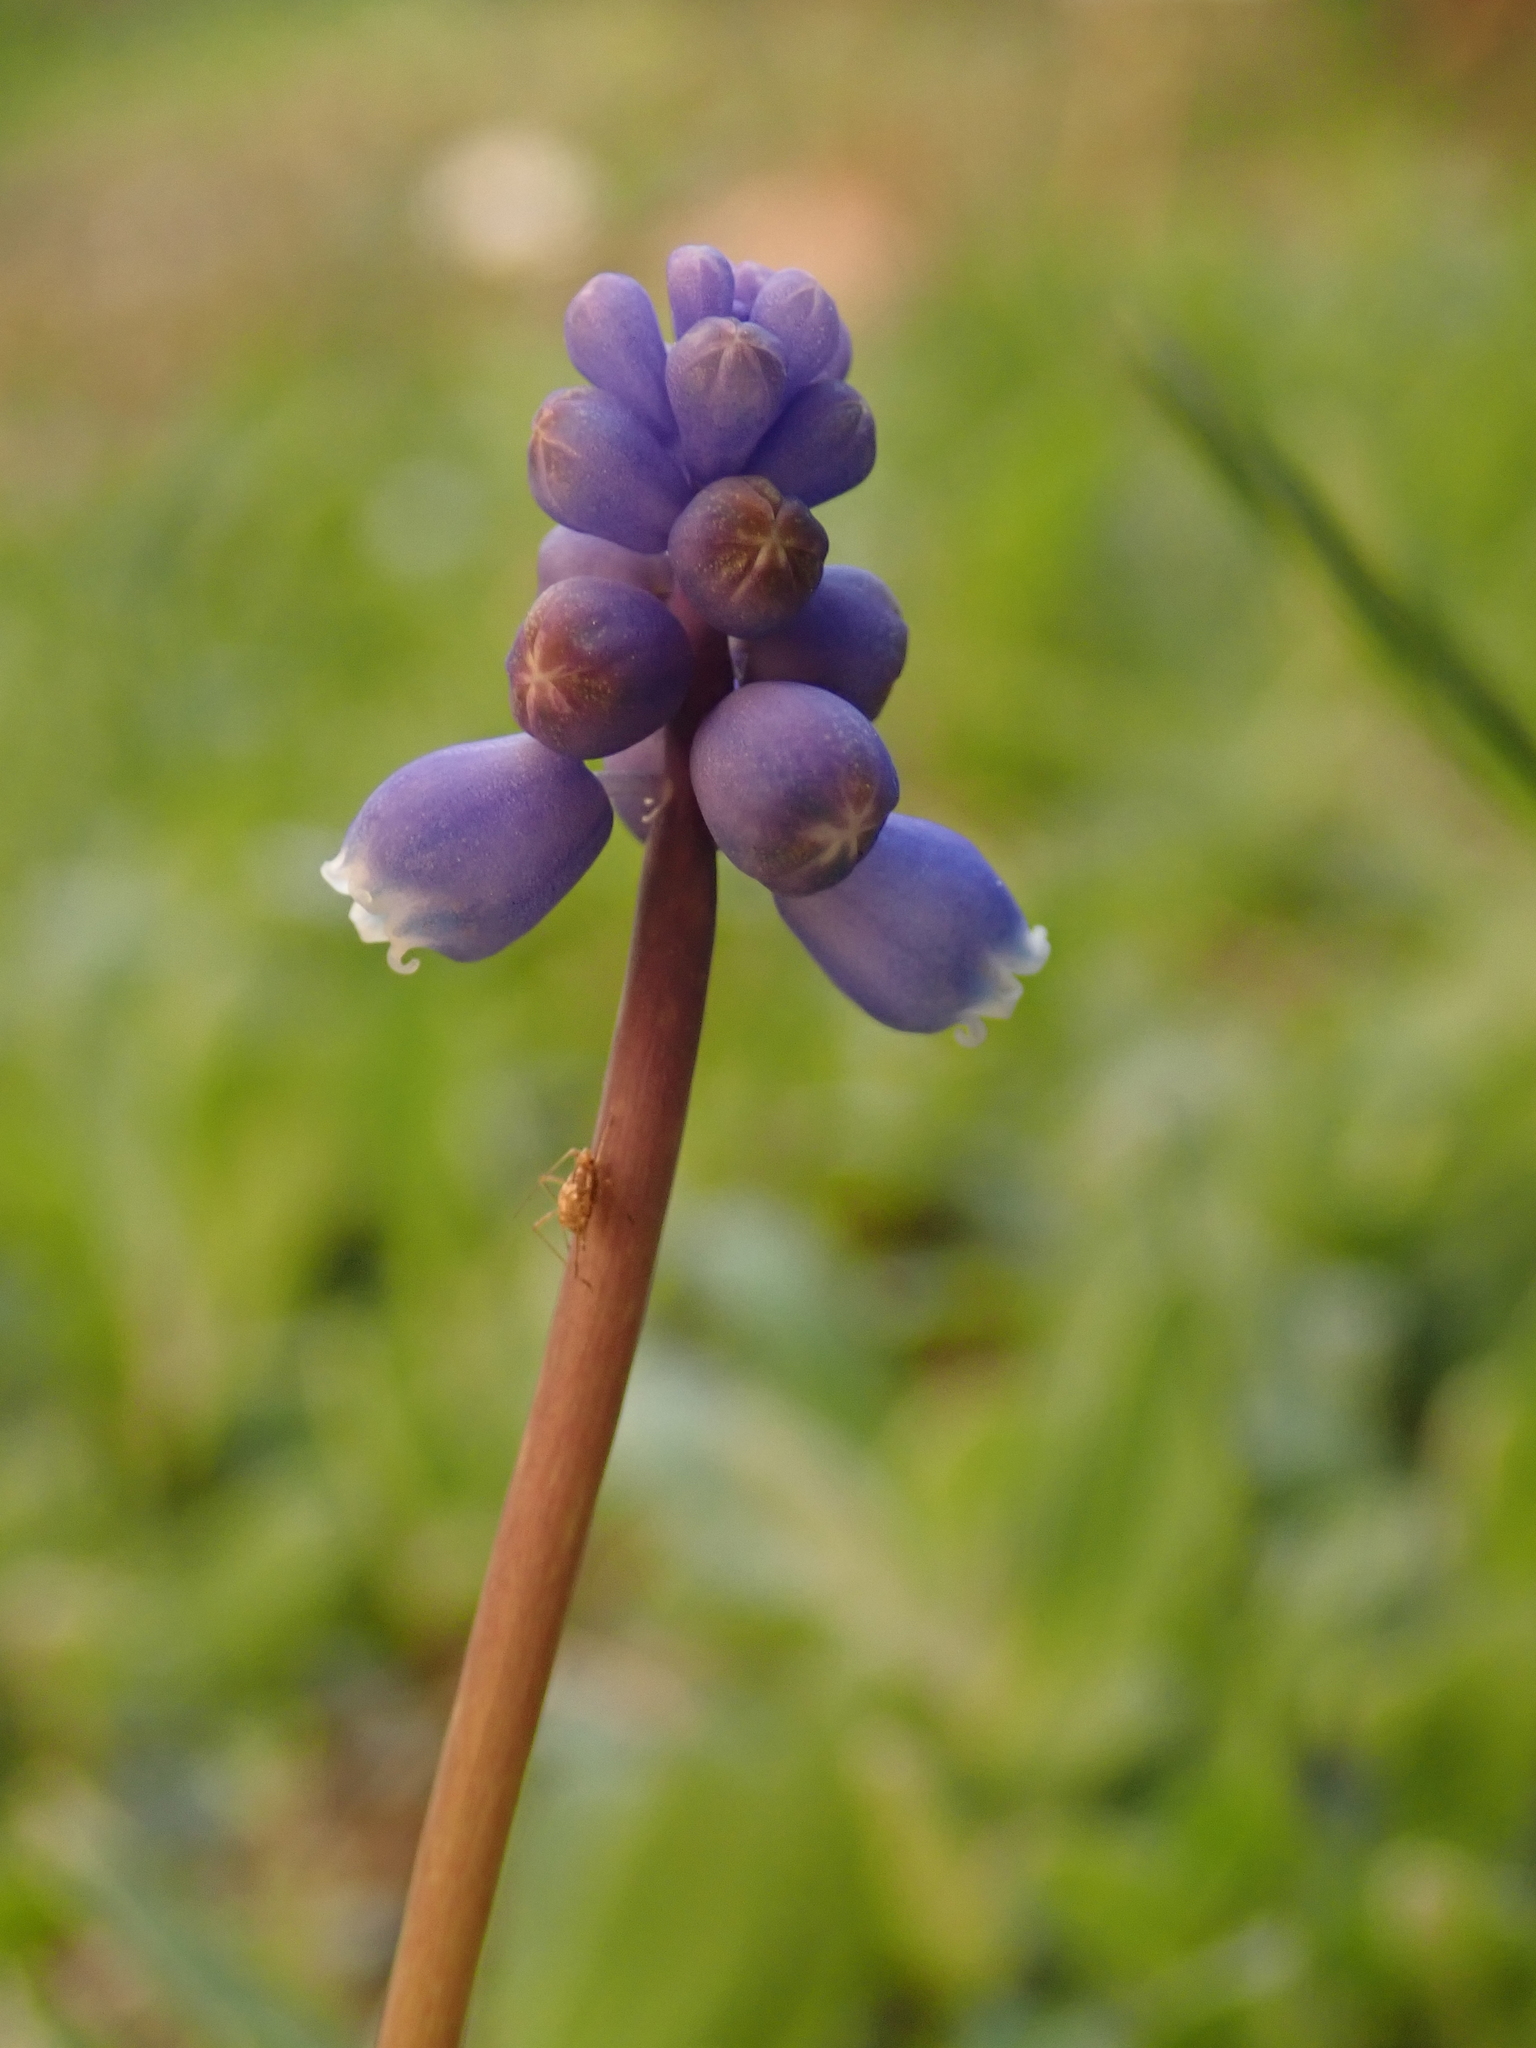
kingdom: Plantae
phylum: Tracheophyta
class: Liliopsida
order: Asparagales
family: Asparagaceae
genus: Muscari
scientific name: Muscari botryoides
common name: Compact grape-hyacinth
